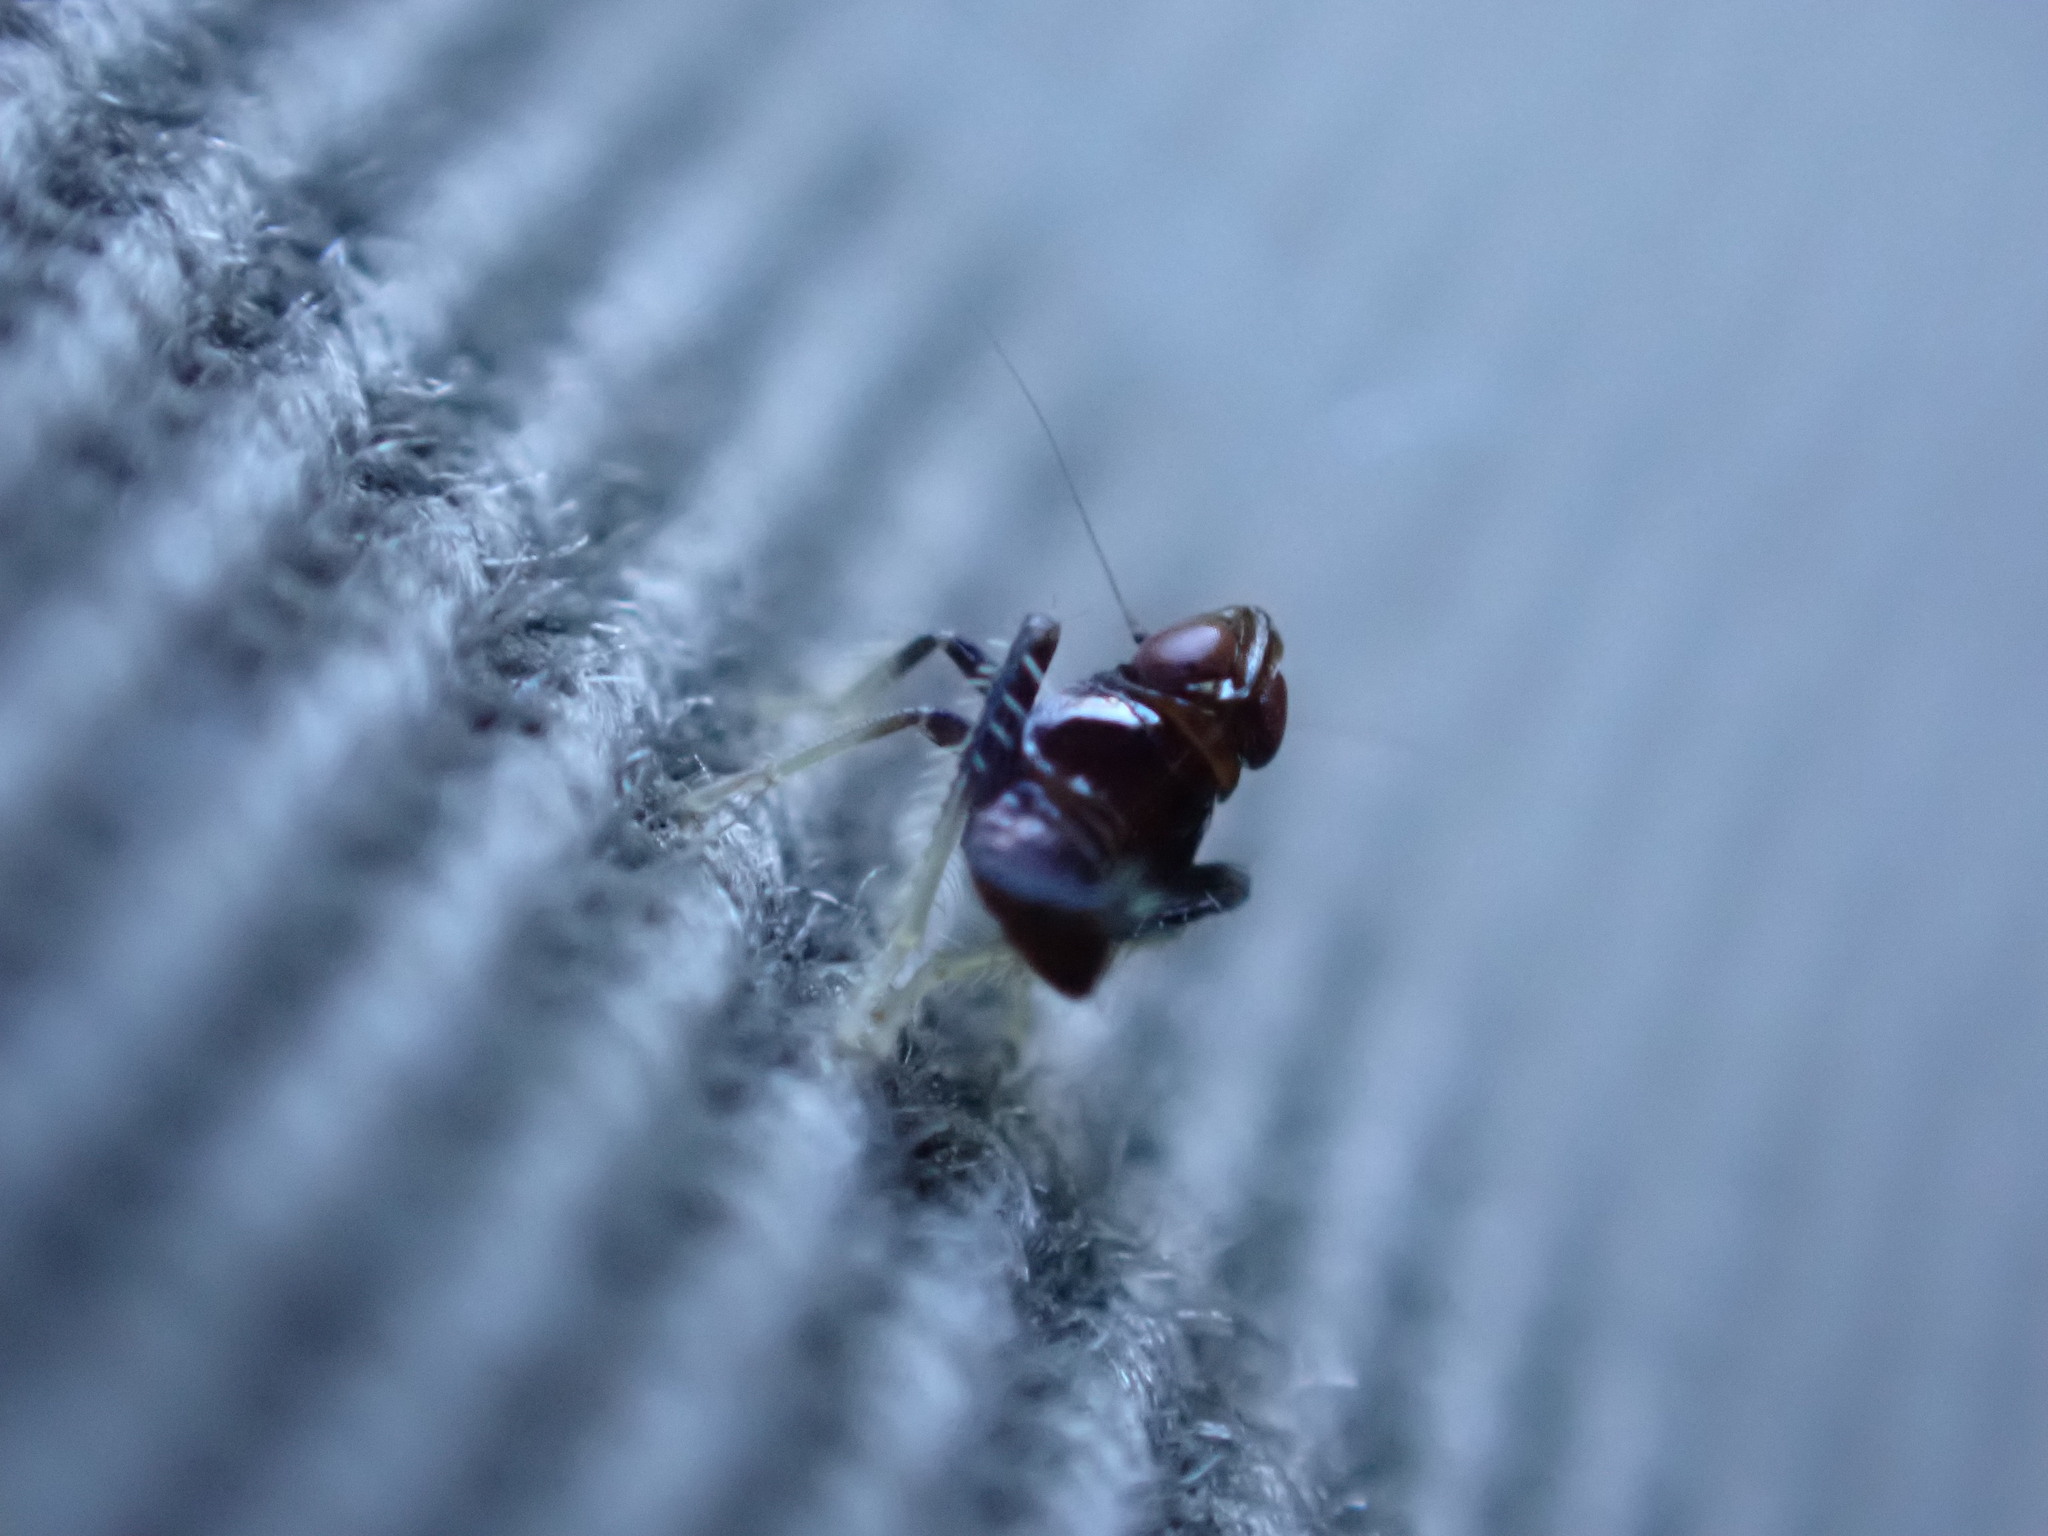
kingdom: Animalia
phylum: Arthropoda
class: Insecta
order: Hemiptera
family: Cicadellidae
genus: Jikradia
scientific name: Jikradia olitoria
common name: Coppery leafhopper
